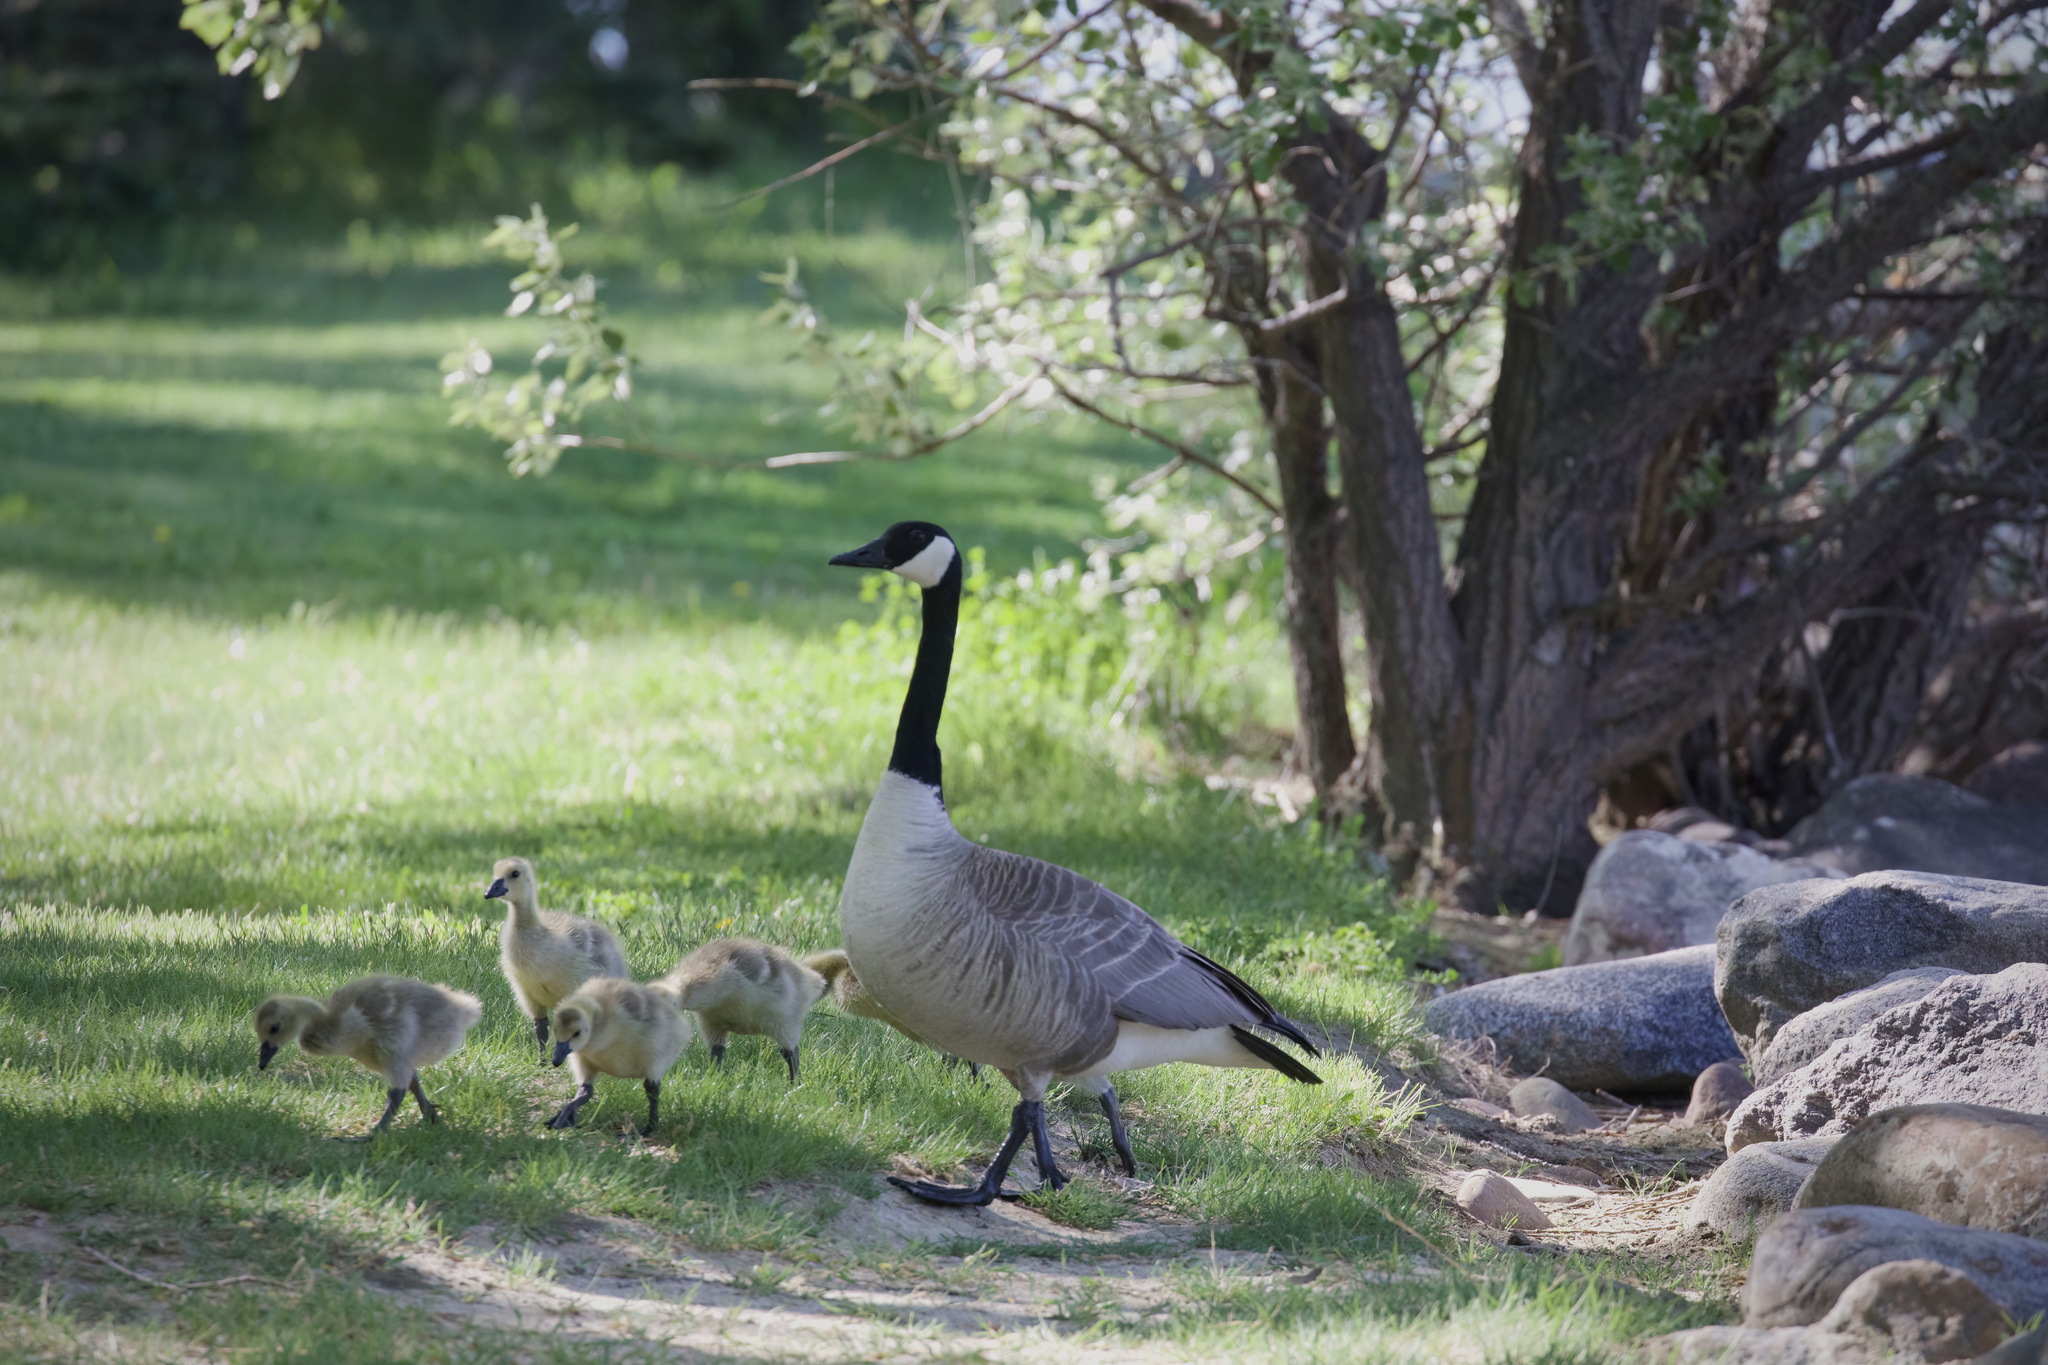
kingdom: Animalia
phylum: Chordata
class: Aves
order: Anseriformes
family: Anatidae
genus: Branta
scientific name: Branta canadensis
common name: Canada goose
